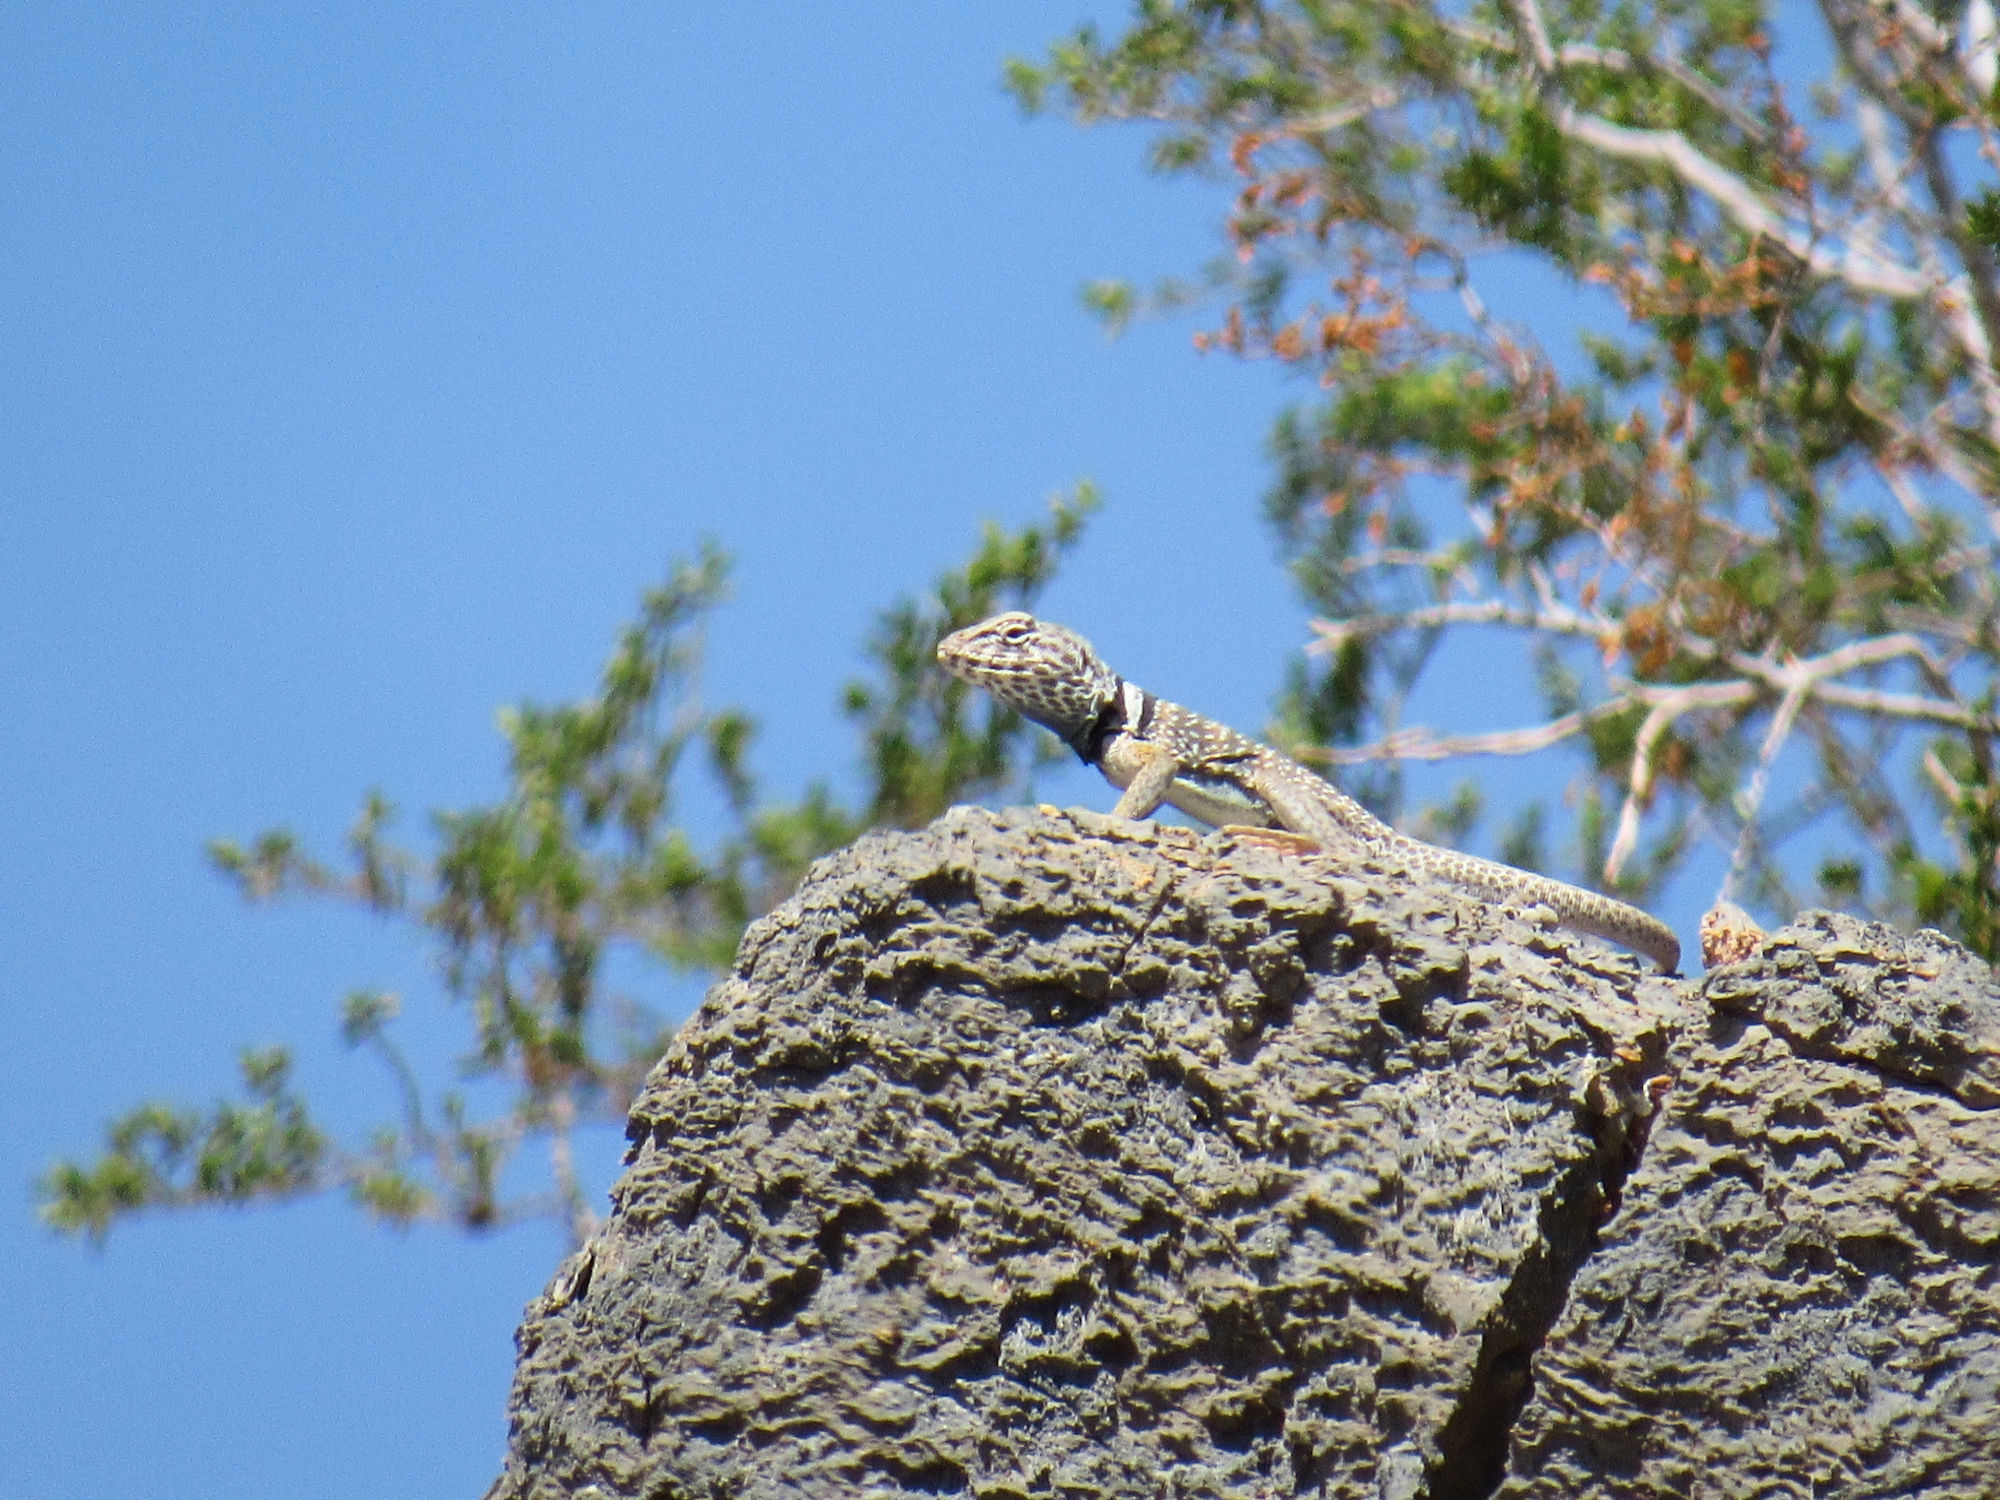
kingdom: Animalia
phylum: Chordata
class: Squamata
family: Crotaphytidae
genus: Crotaphytus
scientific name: Crotaphytus bicinctores
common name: Mojave black-collared lizard
